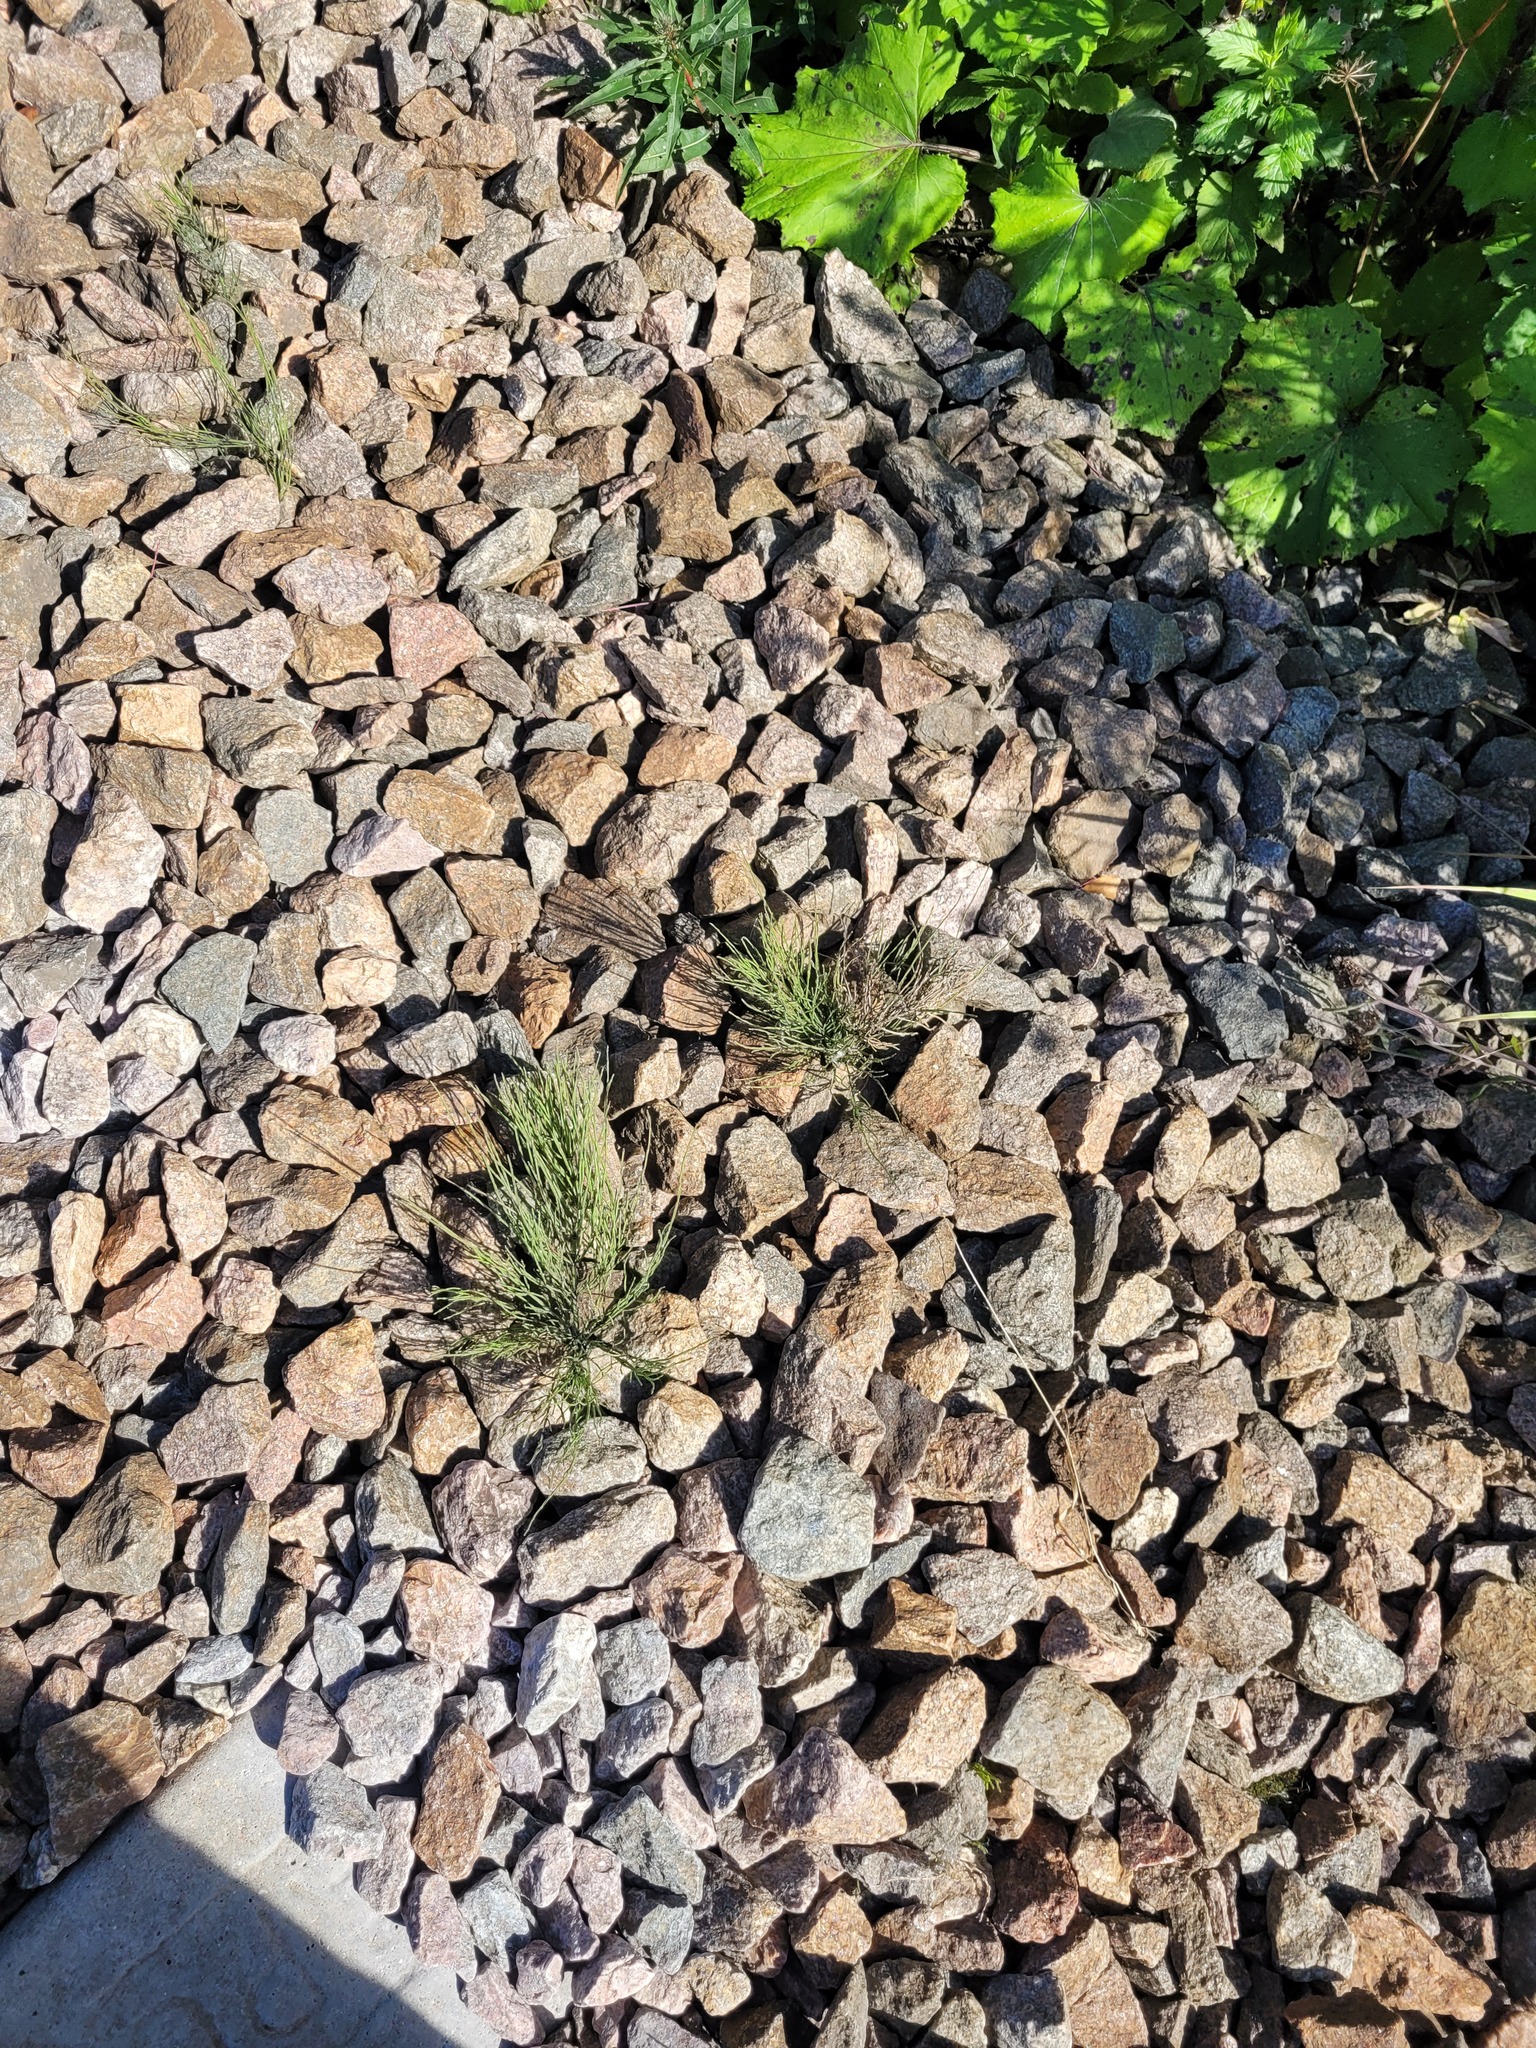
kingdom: Plantae
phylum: Tracheophyta
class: Polypodiopsida
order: Equisetales
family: Equisetaceae
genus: Equisetum
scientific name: Equisetum arvense
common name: Field horsetail
